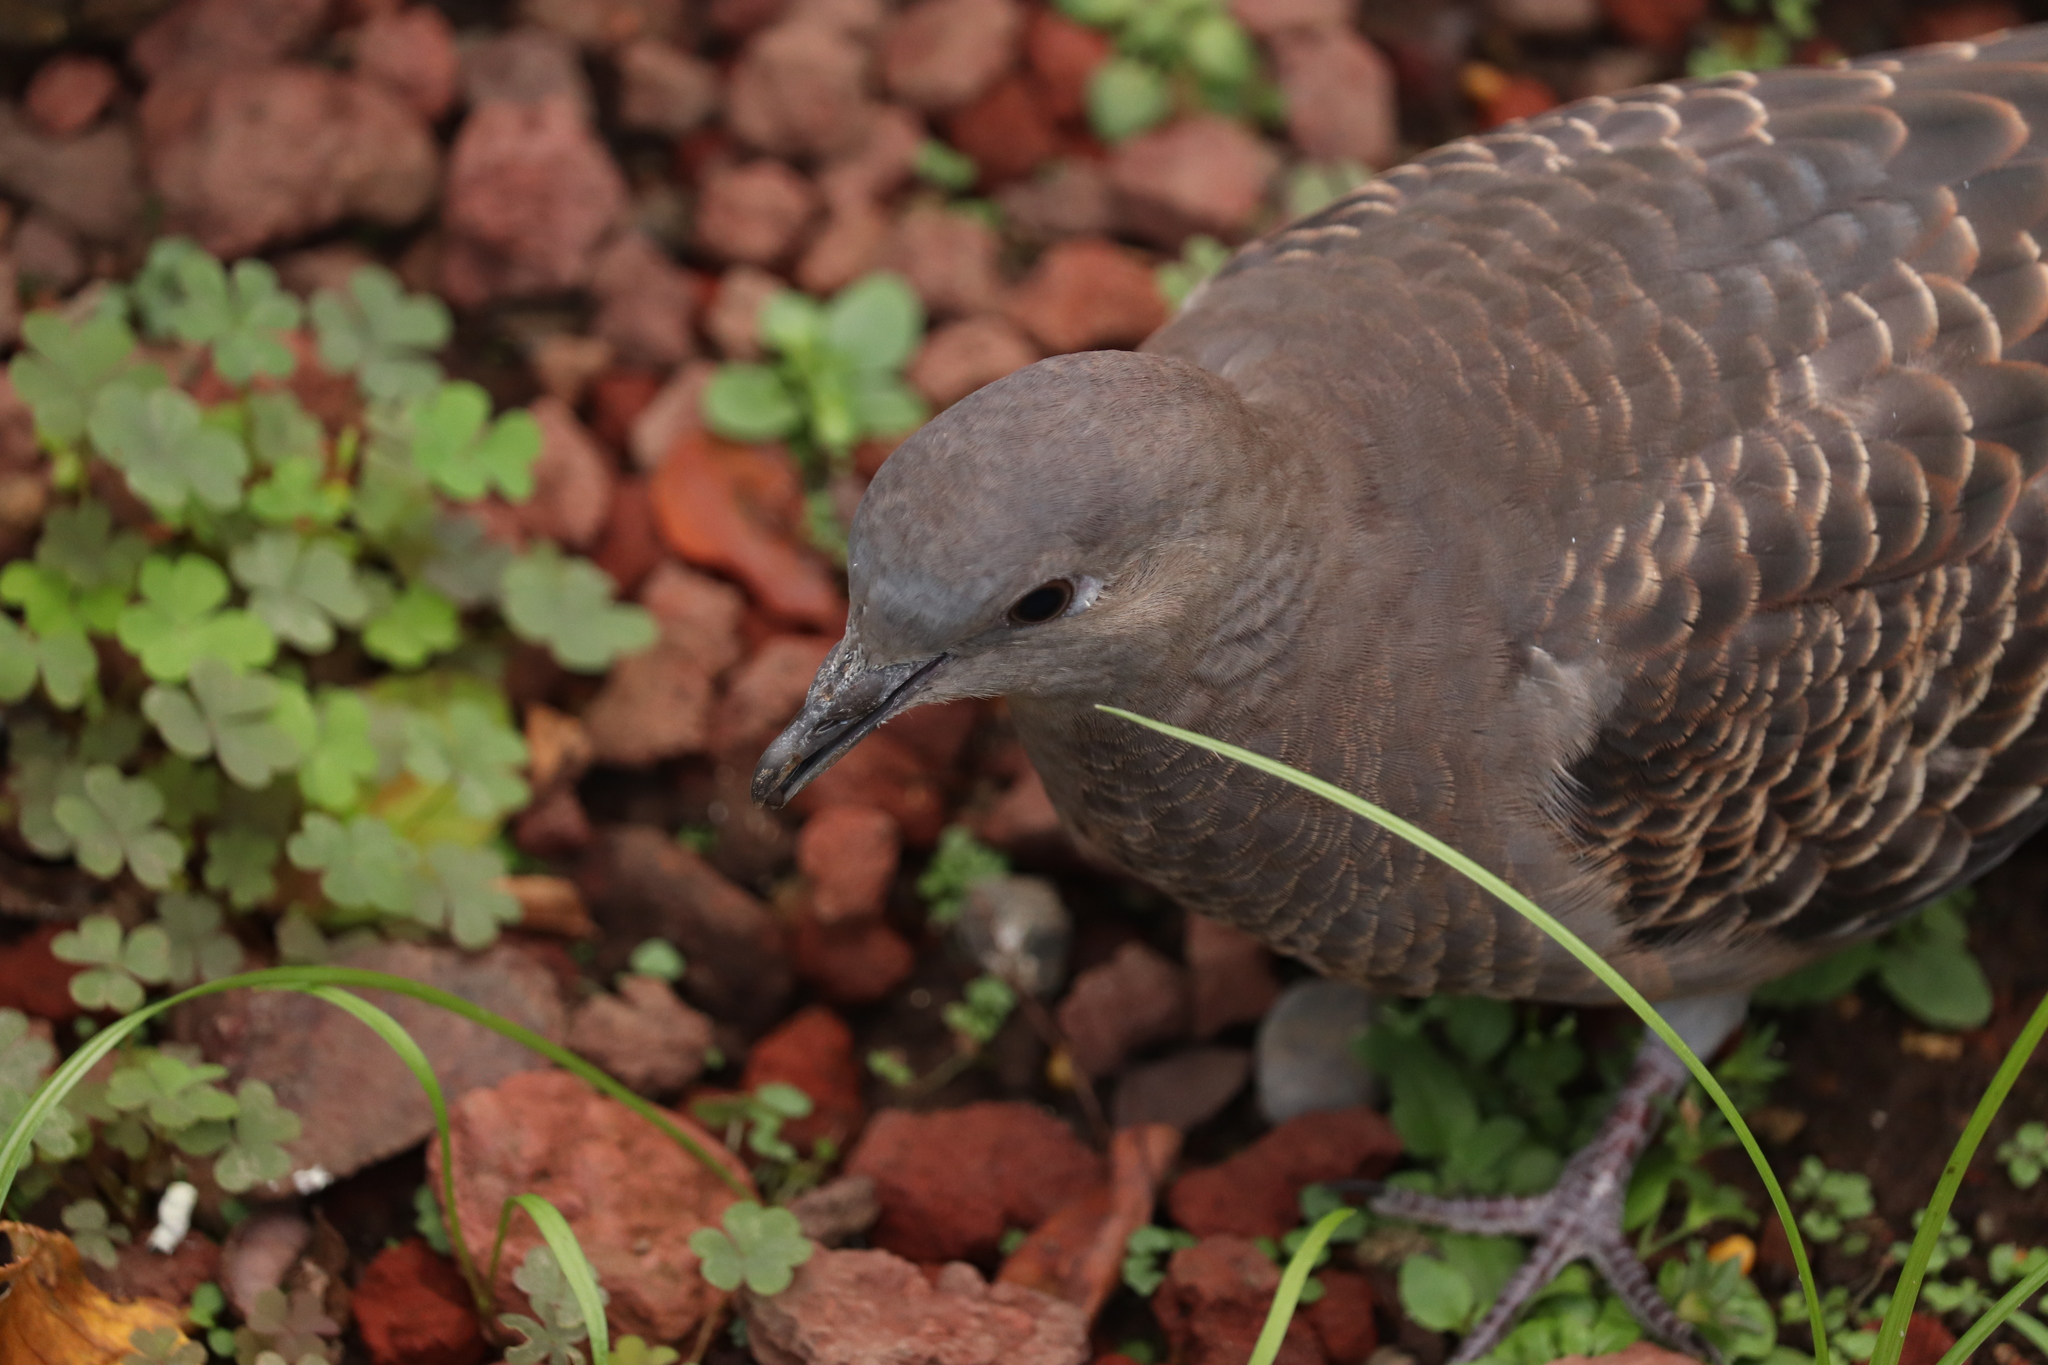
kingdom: Animalia
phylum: Chordata
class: Aves
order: Columbiformes
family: Columbidae
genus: Streptopelia
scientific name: Streptopelia orientalis
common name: Oriental turtle dove
